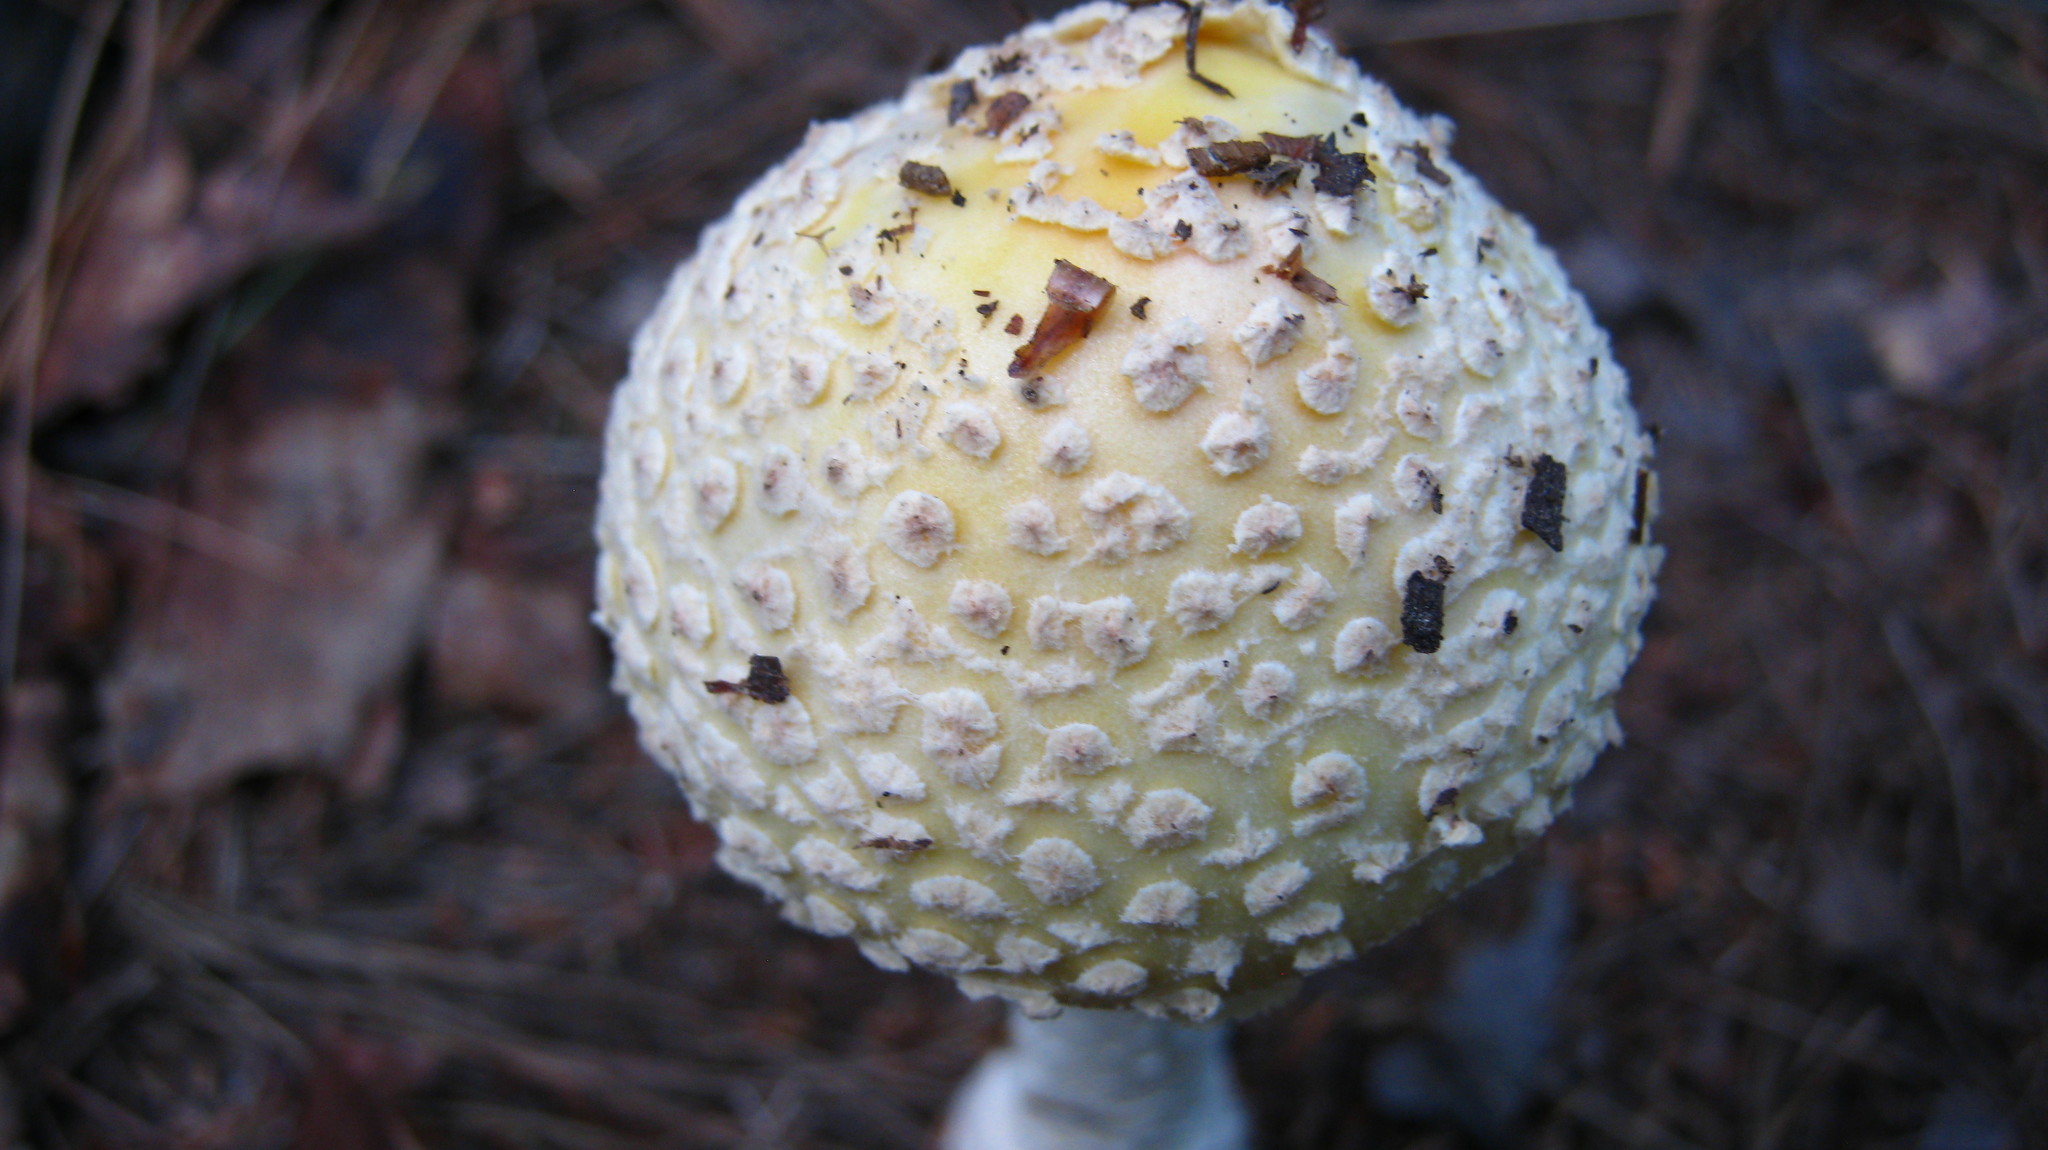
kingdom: Fungi
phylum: Basidiomycota
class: Agaricomycetes
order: Agaricales
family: Amanitaceae
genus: Amanita
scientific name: Amanita muscaria
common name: Fly agaric
